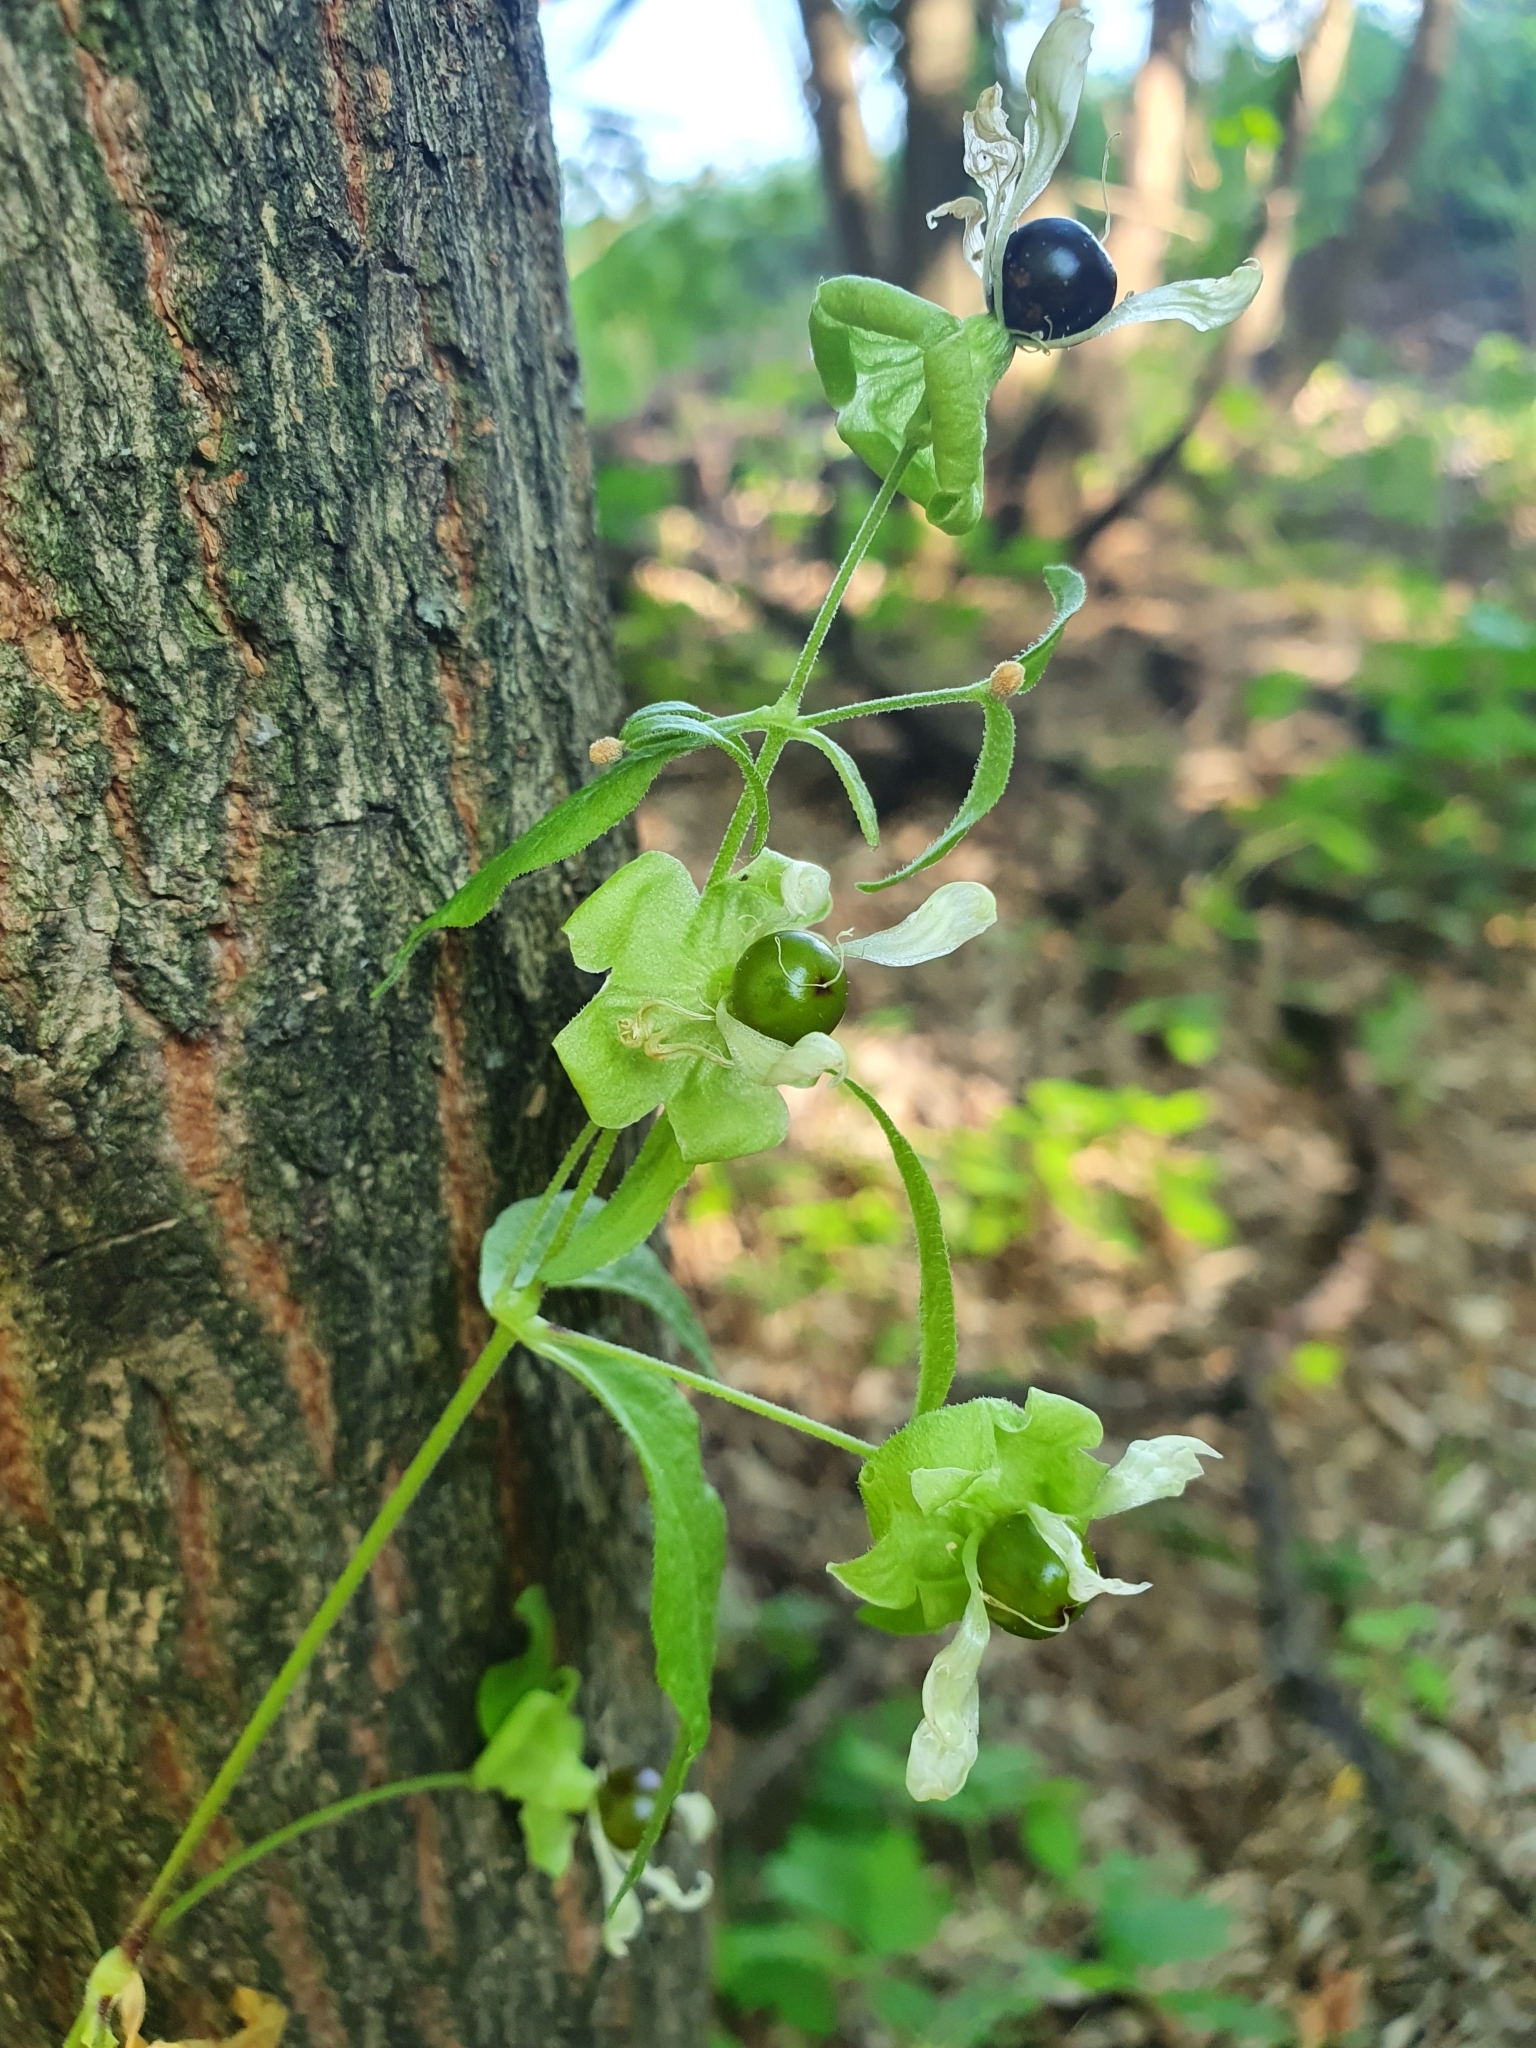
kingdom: Plantae
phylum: Tracheophyta
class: Magnoliopsida
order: Caryophyllales
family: Caryophyllaceae
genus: Silene
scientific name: Silene baccifera
